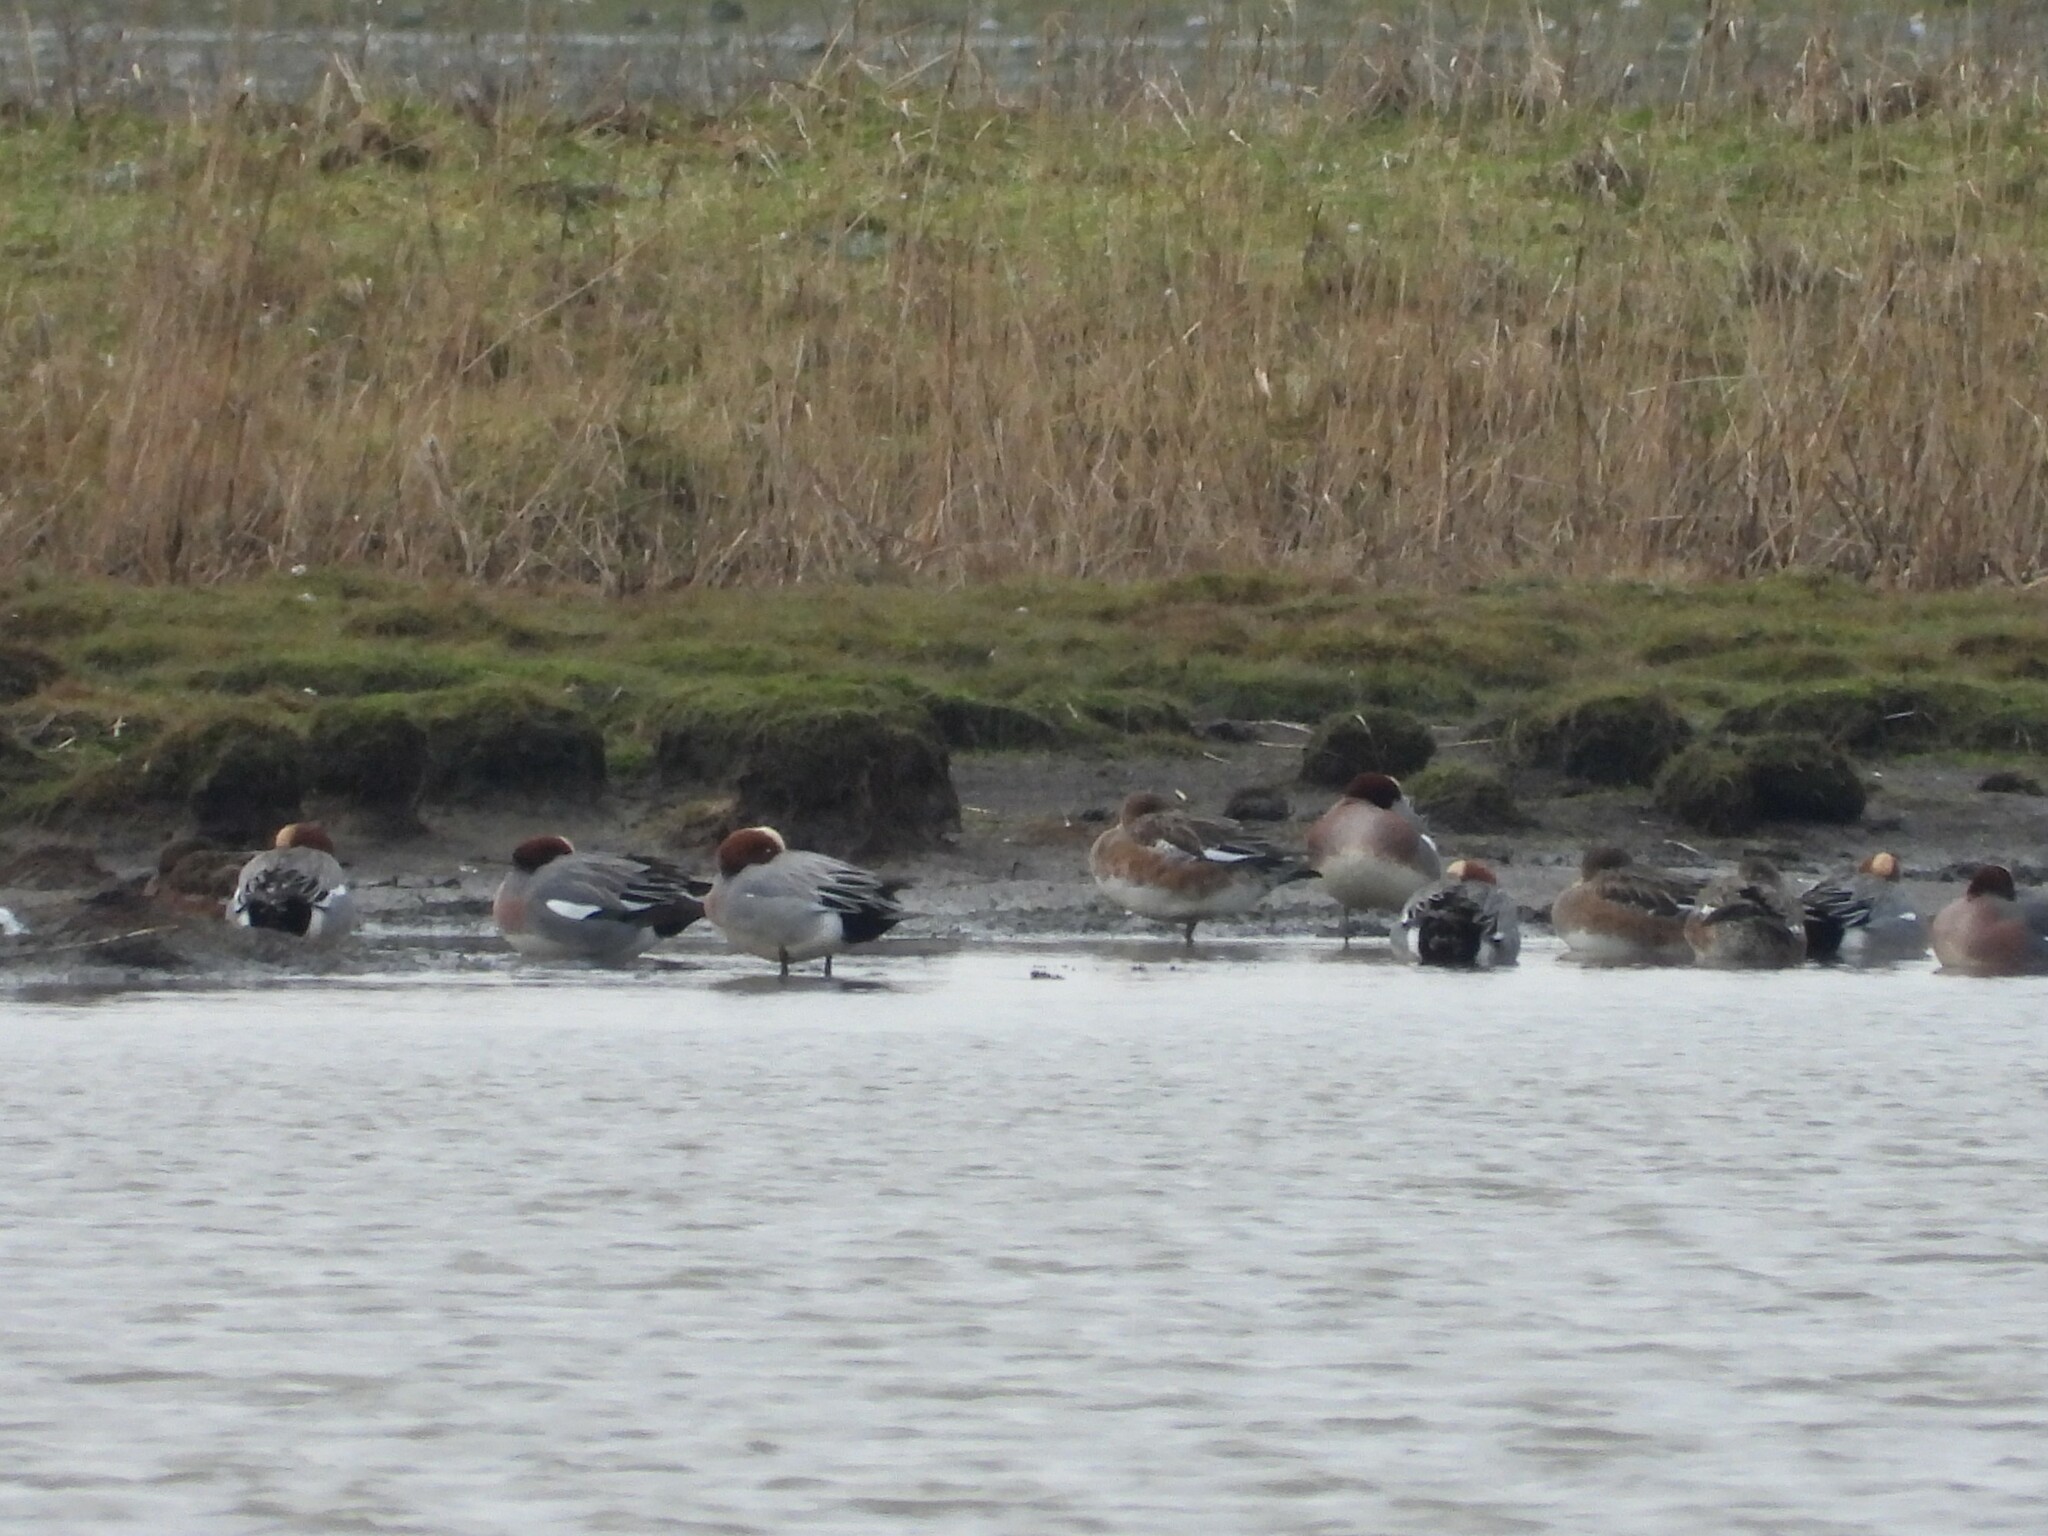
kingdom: Animalia
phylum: Chordata
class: Aves
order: Anseriformes
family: Anatidae
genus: Mareca
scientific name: Mareca penelope
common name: Eurasian wigeon
